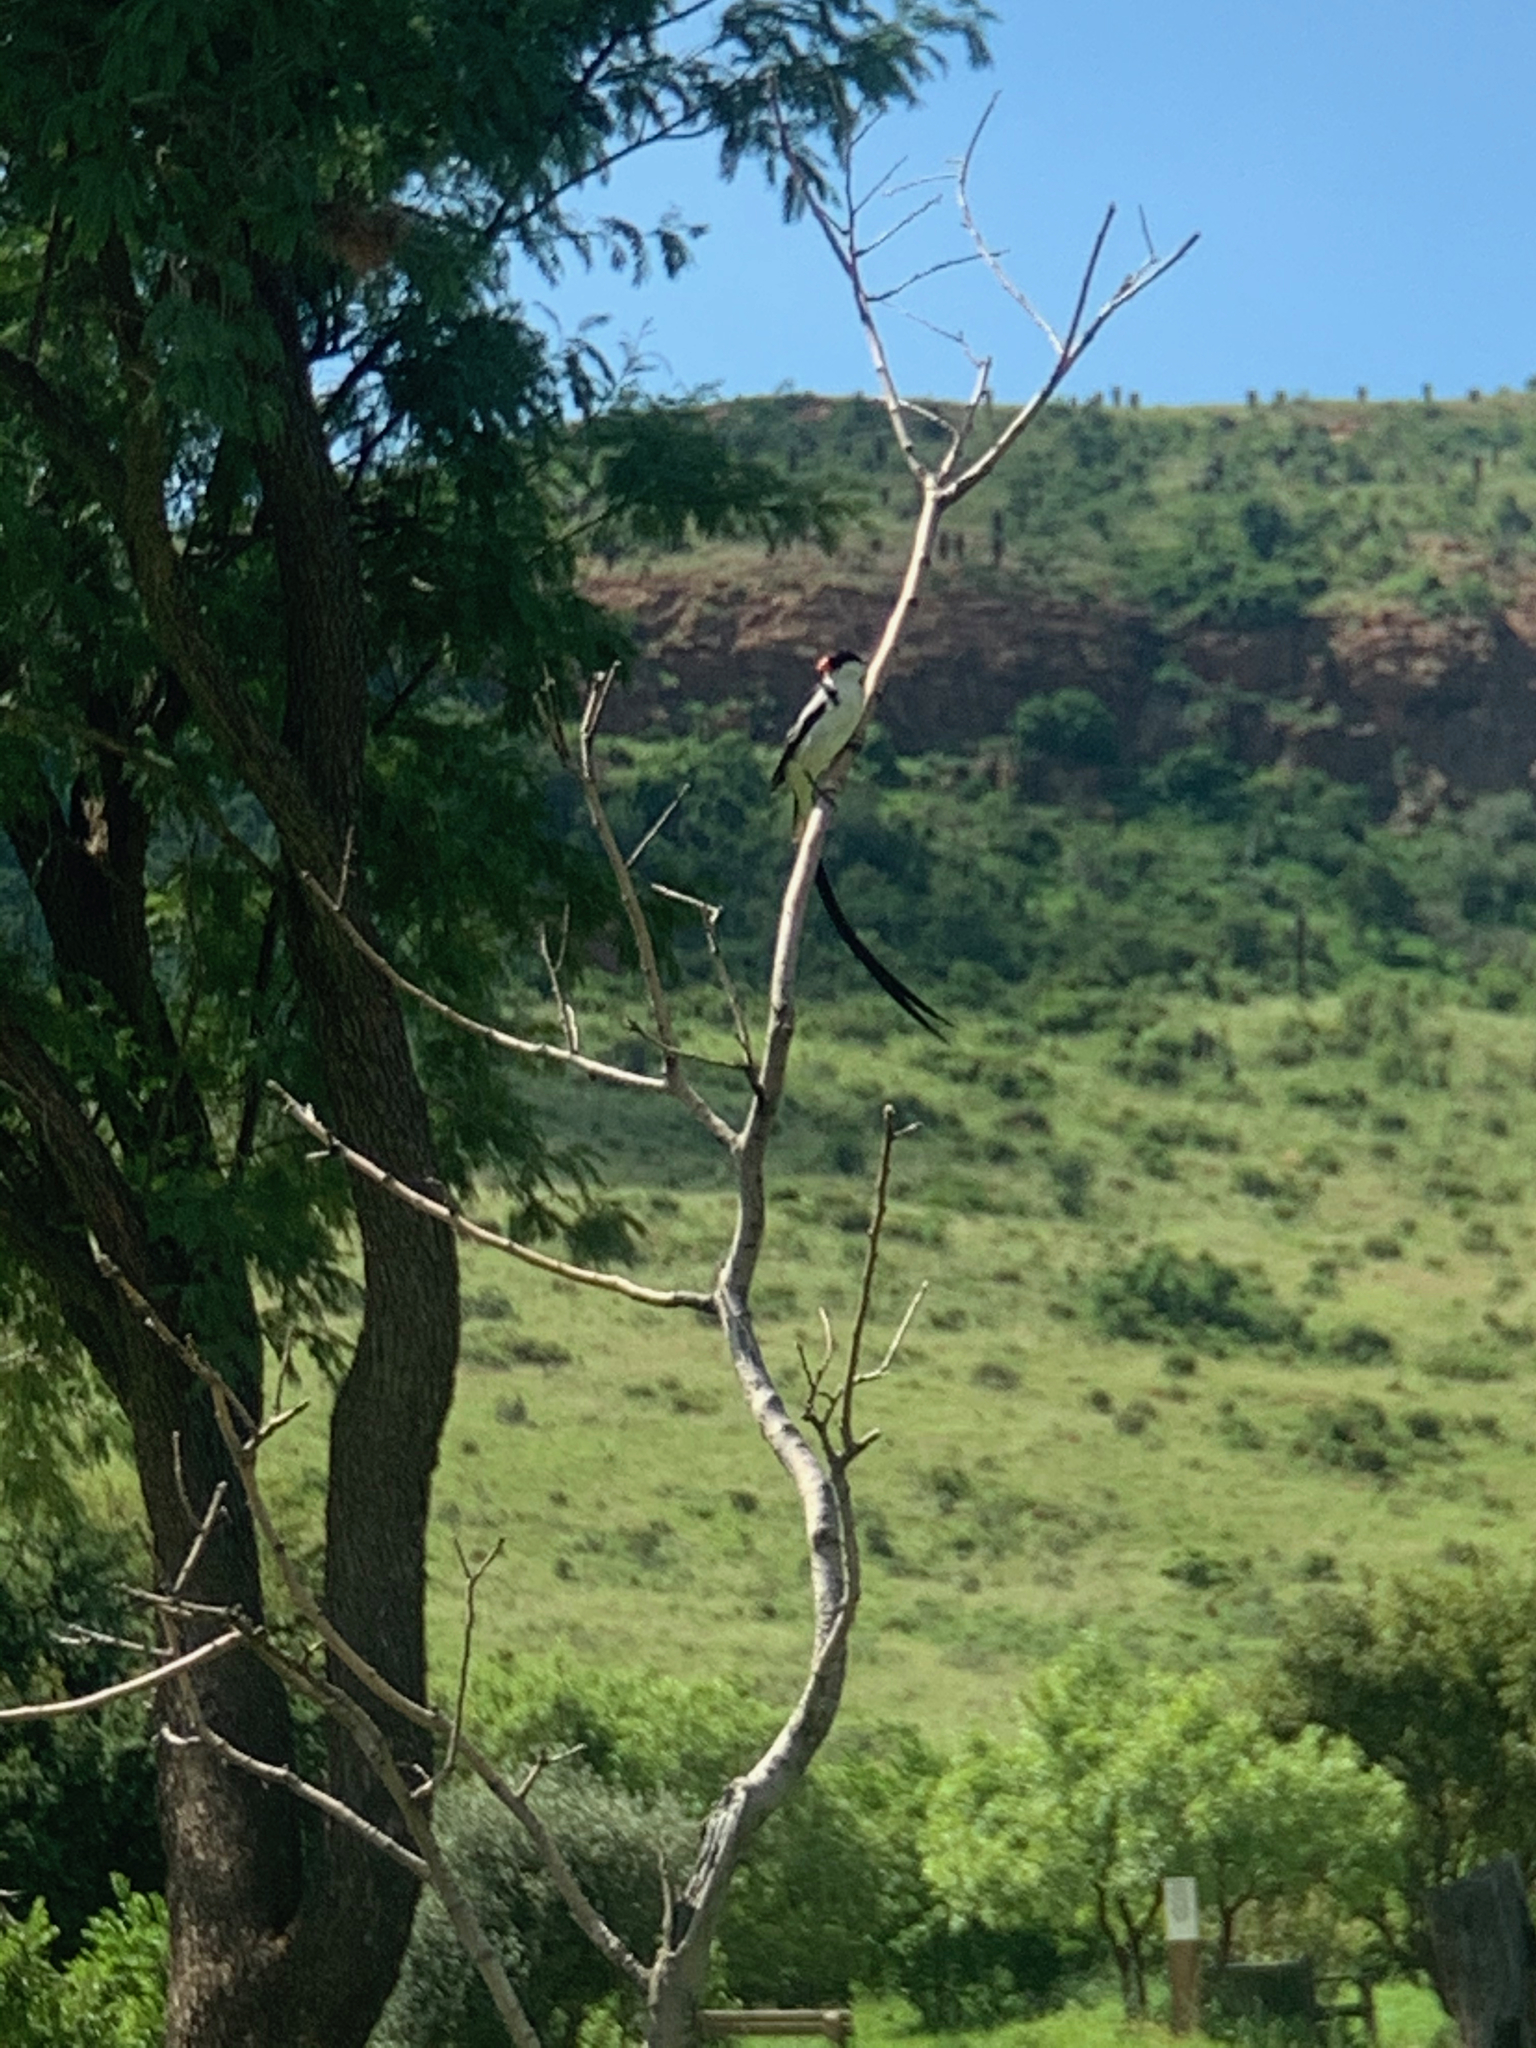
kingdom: Animalia
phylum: Chordata
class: Aves
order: Passeriformes
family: Viduidae
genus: Vidua
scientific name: Vidua macroura
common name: Pin-tailed whydah
